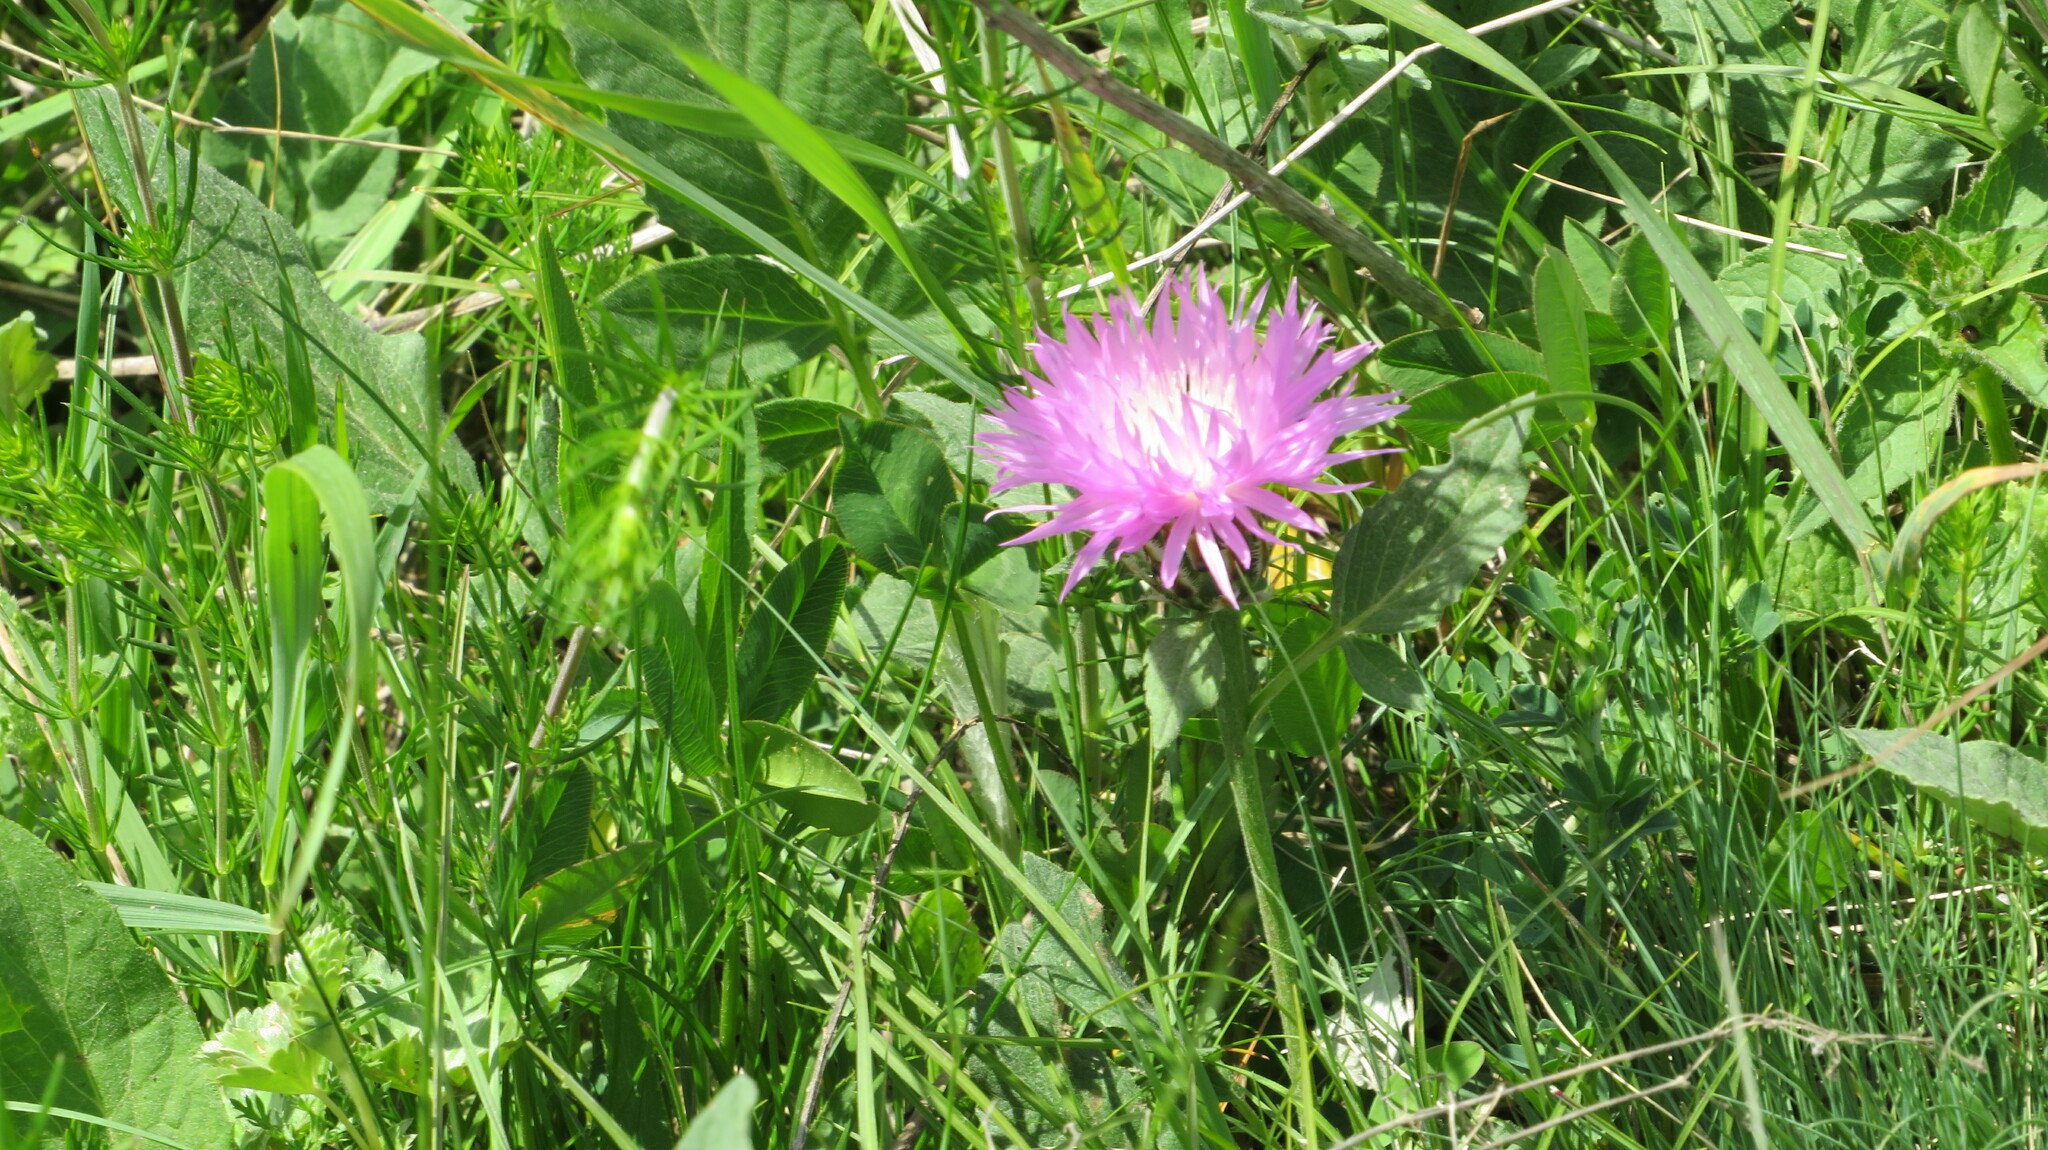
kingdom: Plantae
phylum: Tracheophyta
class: Magnoliopsida
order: Asterales
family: Asteraceae
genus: Psephellus
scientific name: Psephellus dealbatus
